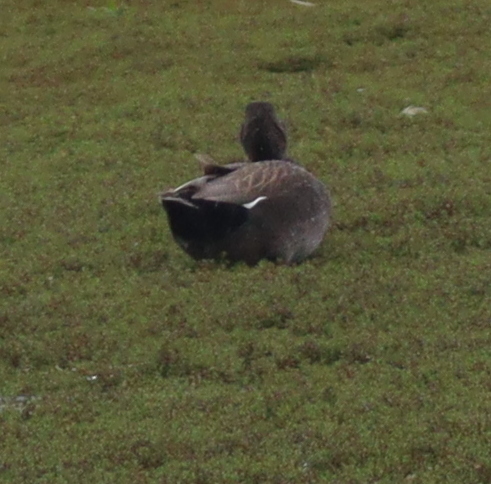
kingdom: Animalia
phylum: Chordata
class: Aves
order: Anseriformes
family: Anatidae
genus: Mareca
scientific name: Mareca strepera
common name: Gadwall
